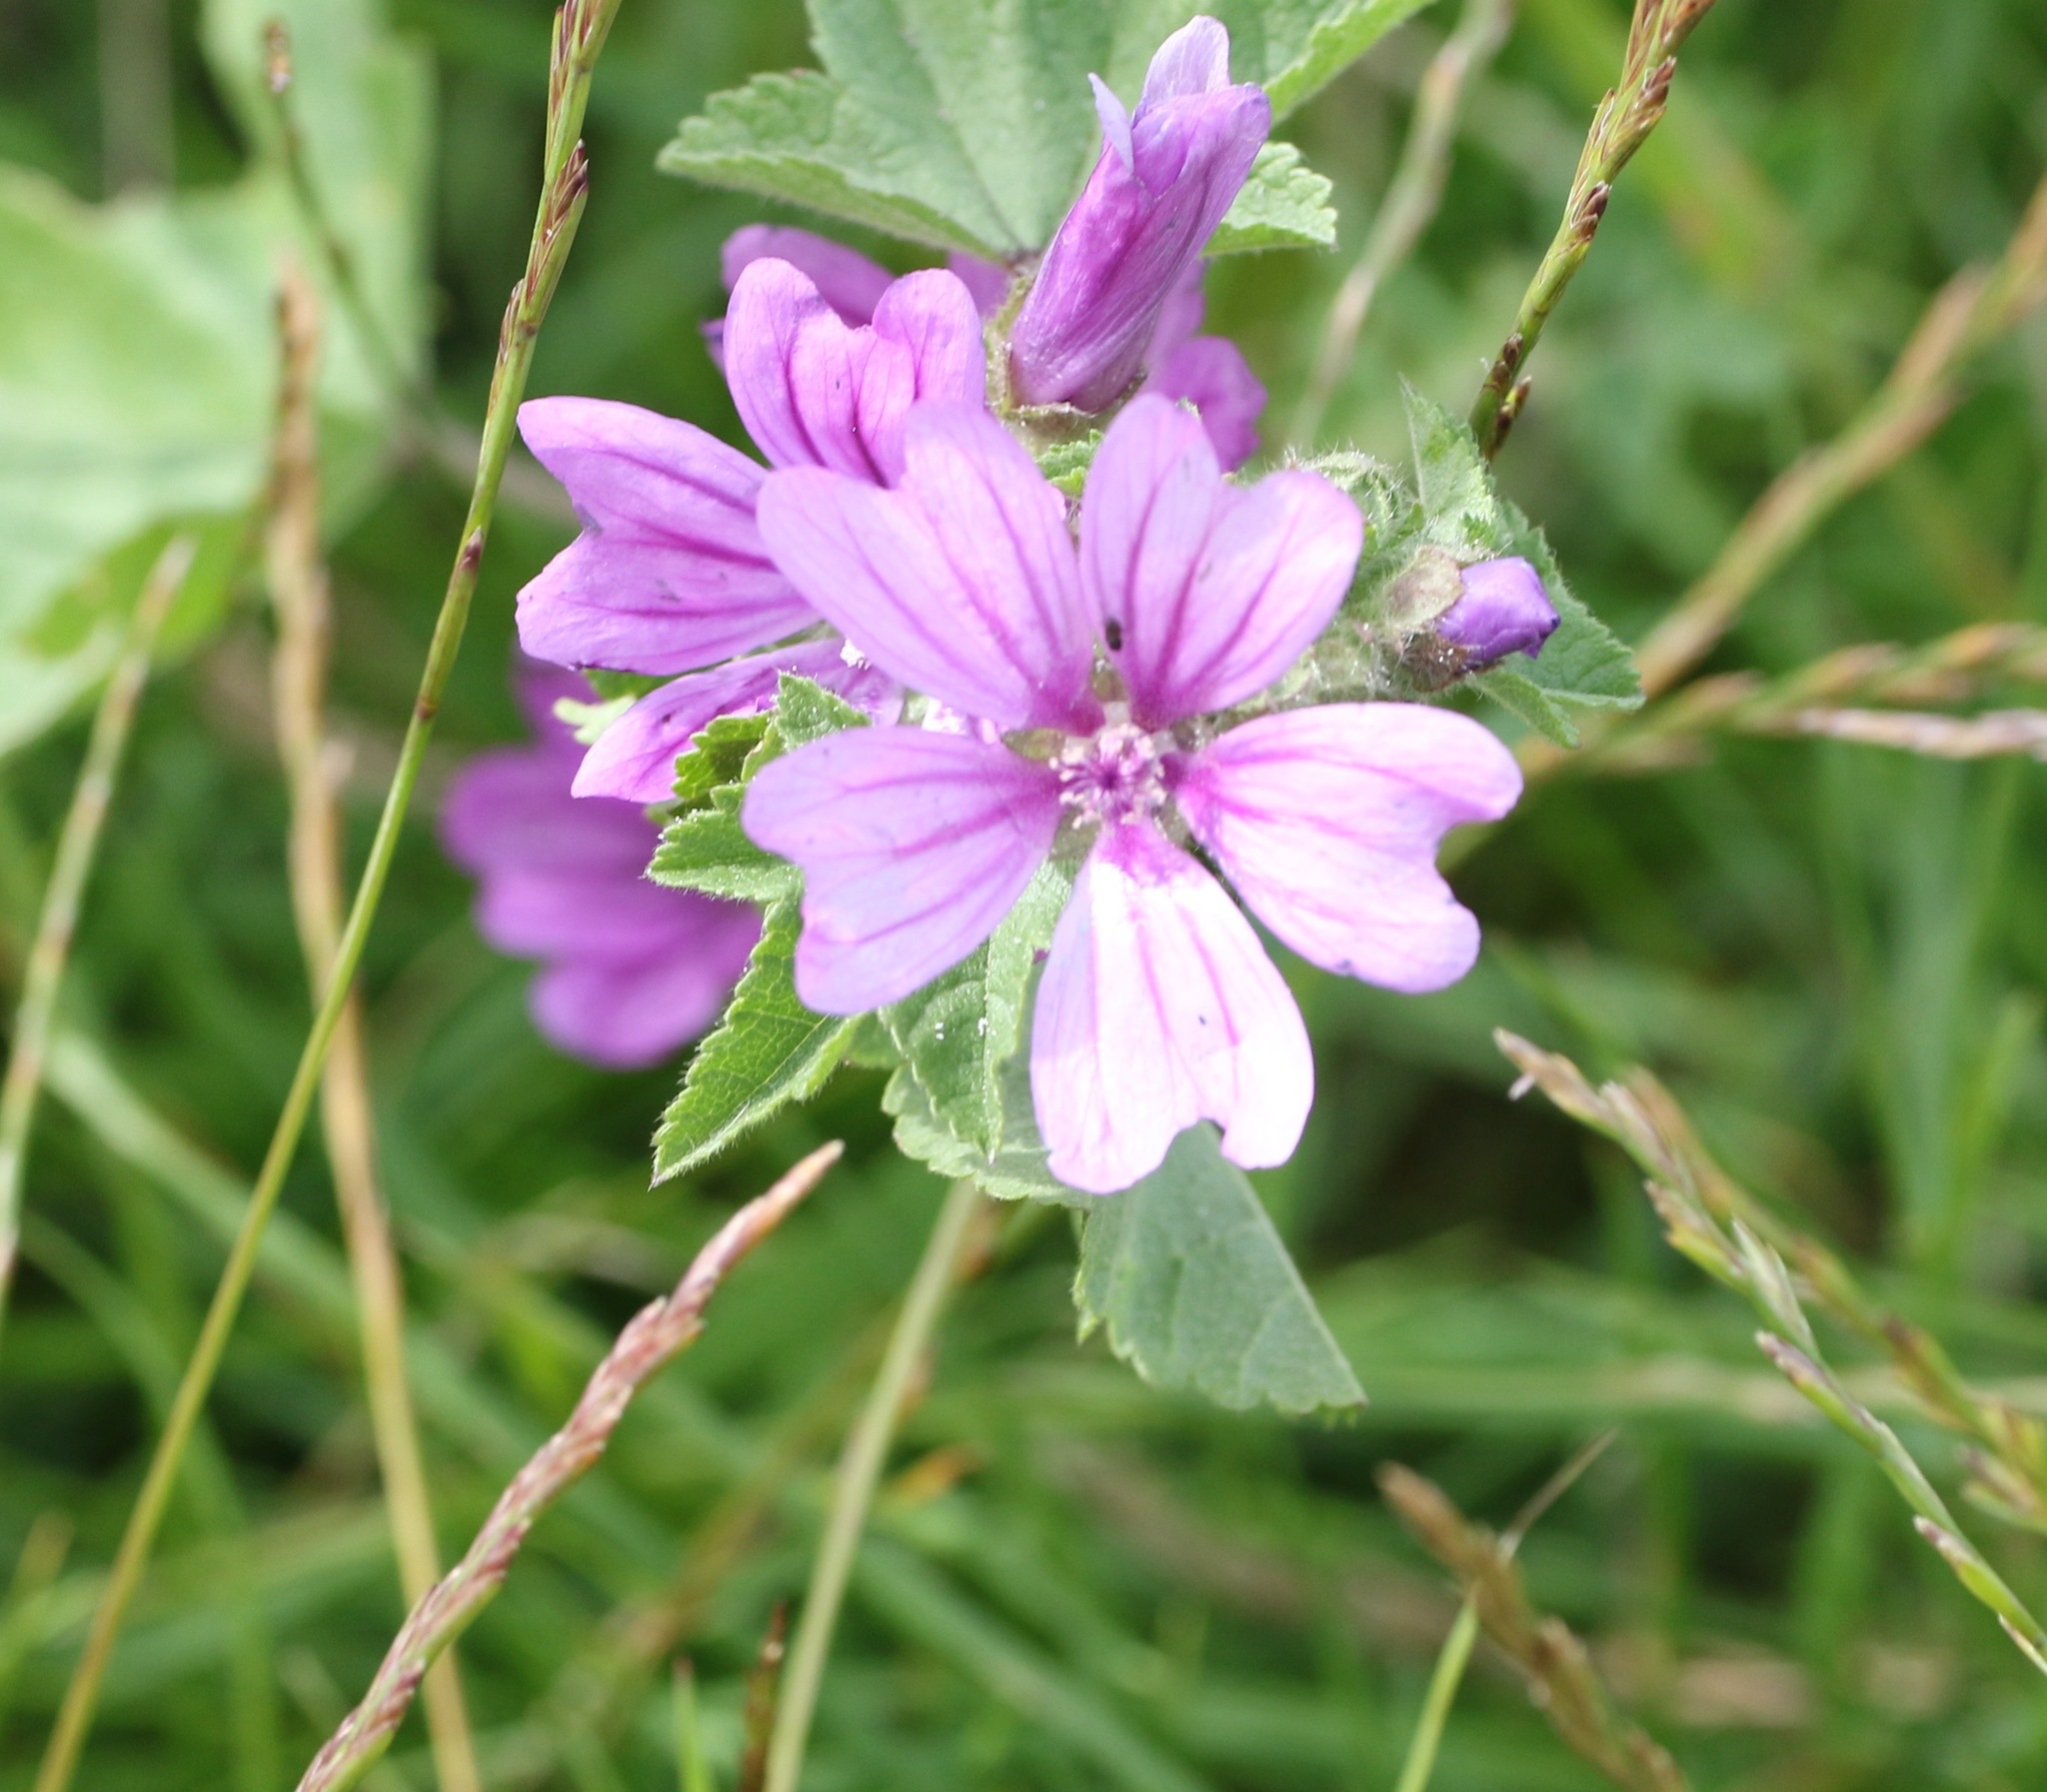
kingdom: Plantae
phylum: Tracheophyta
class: Magnoliopsida
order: Malvales
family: Malvaceae
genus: Malva
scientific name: Malva sylvestris
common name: Common mallow
